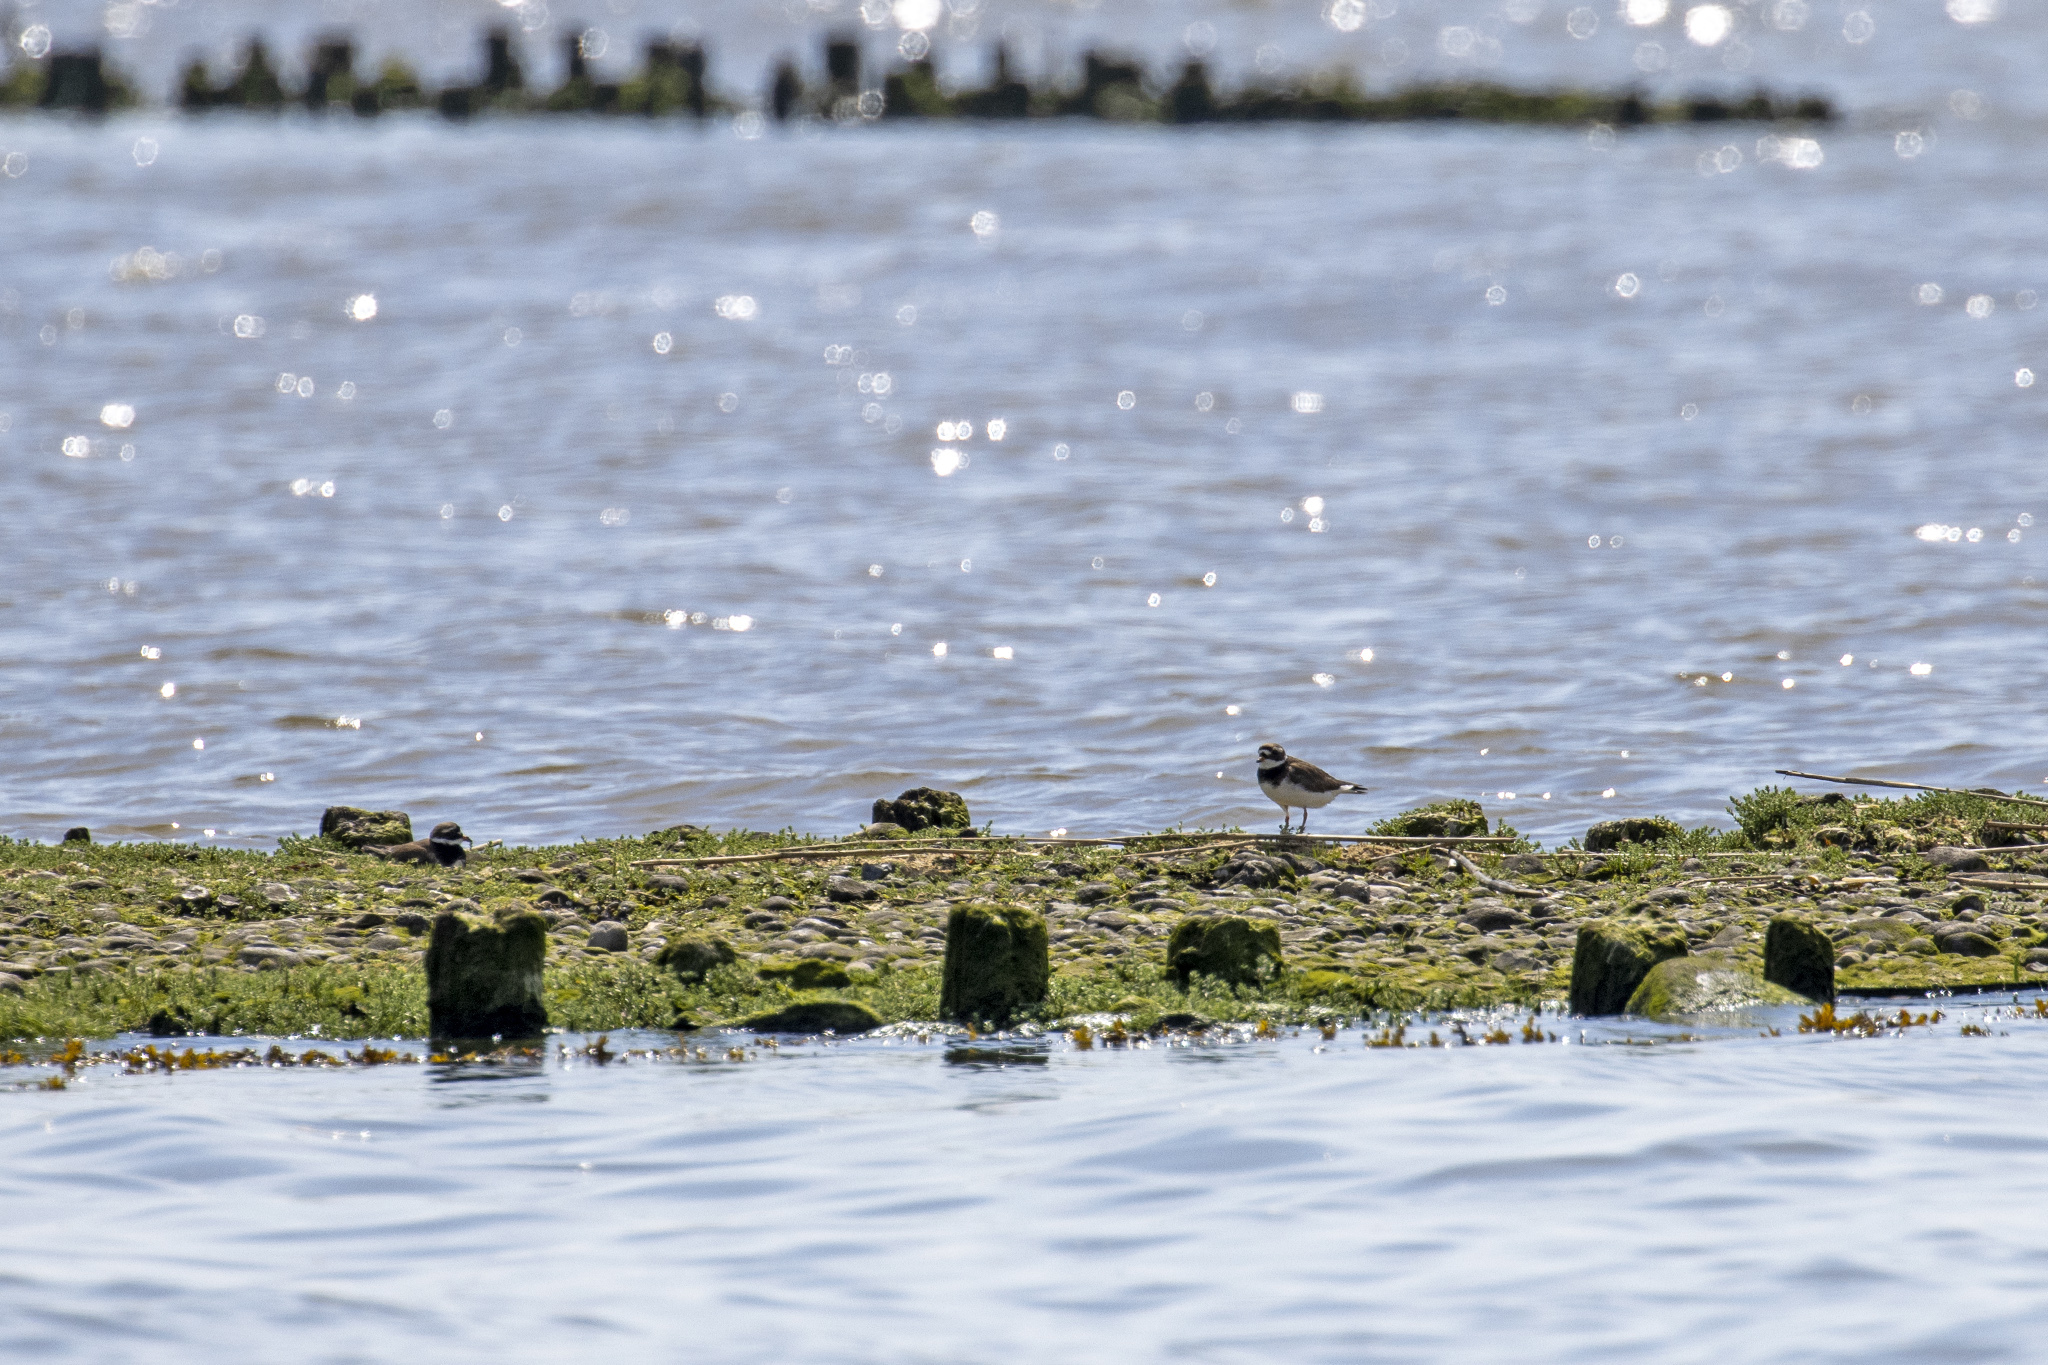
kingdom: Animalia
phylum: Chordata
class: Aves
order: Charadriiformes
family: Charadriidae
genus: Charadrius
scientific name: Charadrius hiaticula
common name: Common ringed plover
